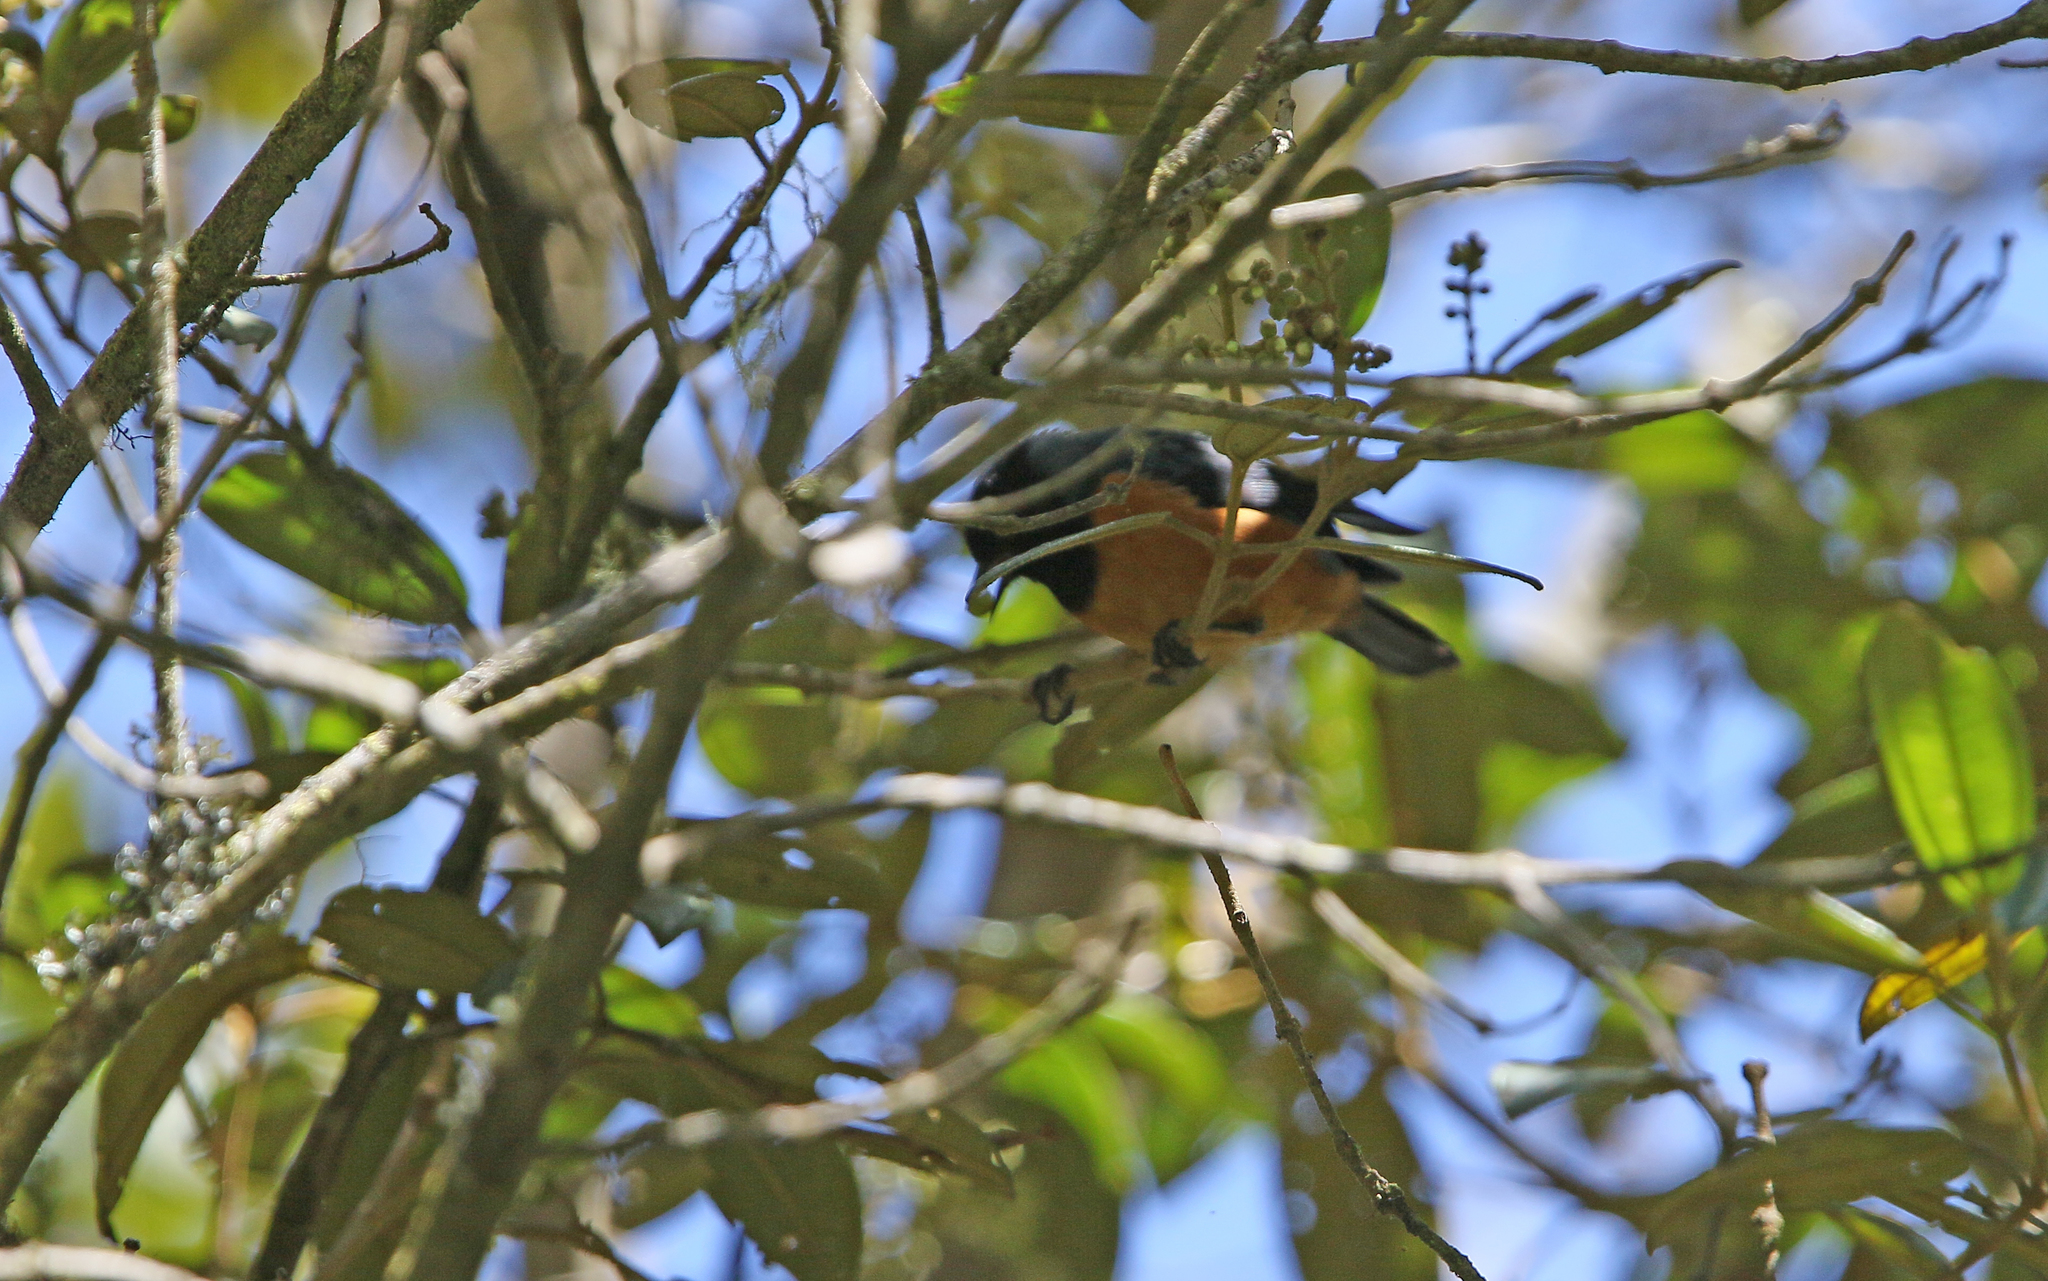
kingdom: Animalia
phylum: Chordata
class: Aves
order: Passeriformes
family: Thraupidae
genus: Conirostrum
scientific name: Conirostrum sitticolor
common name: Blue-backed conebill
